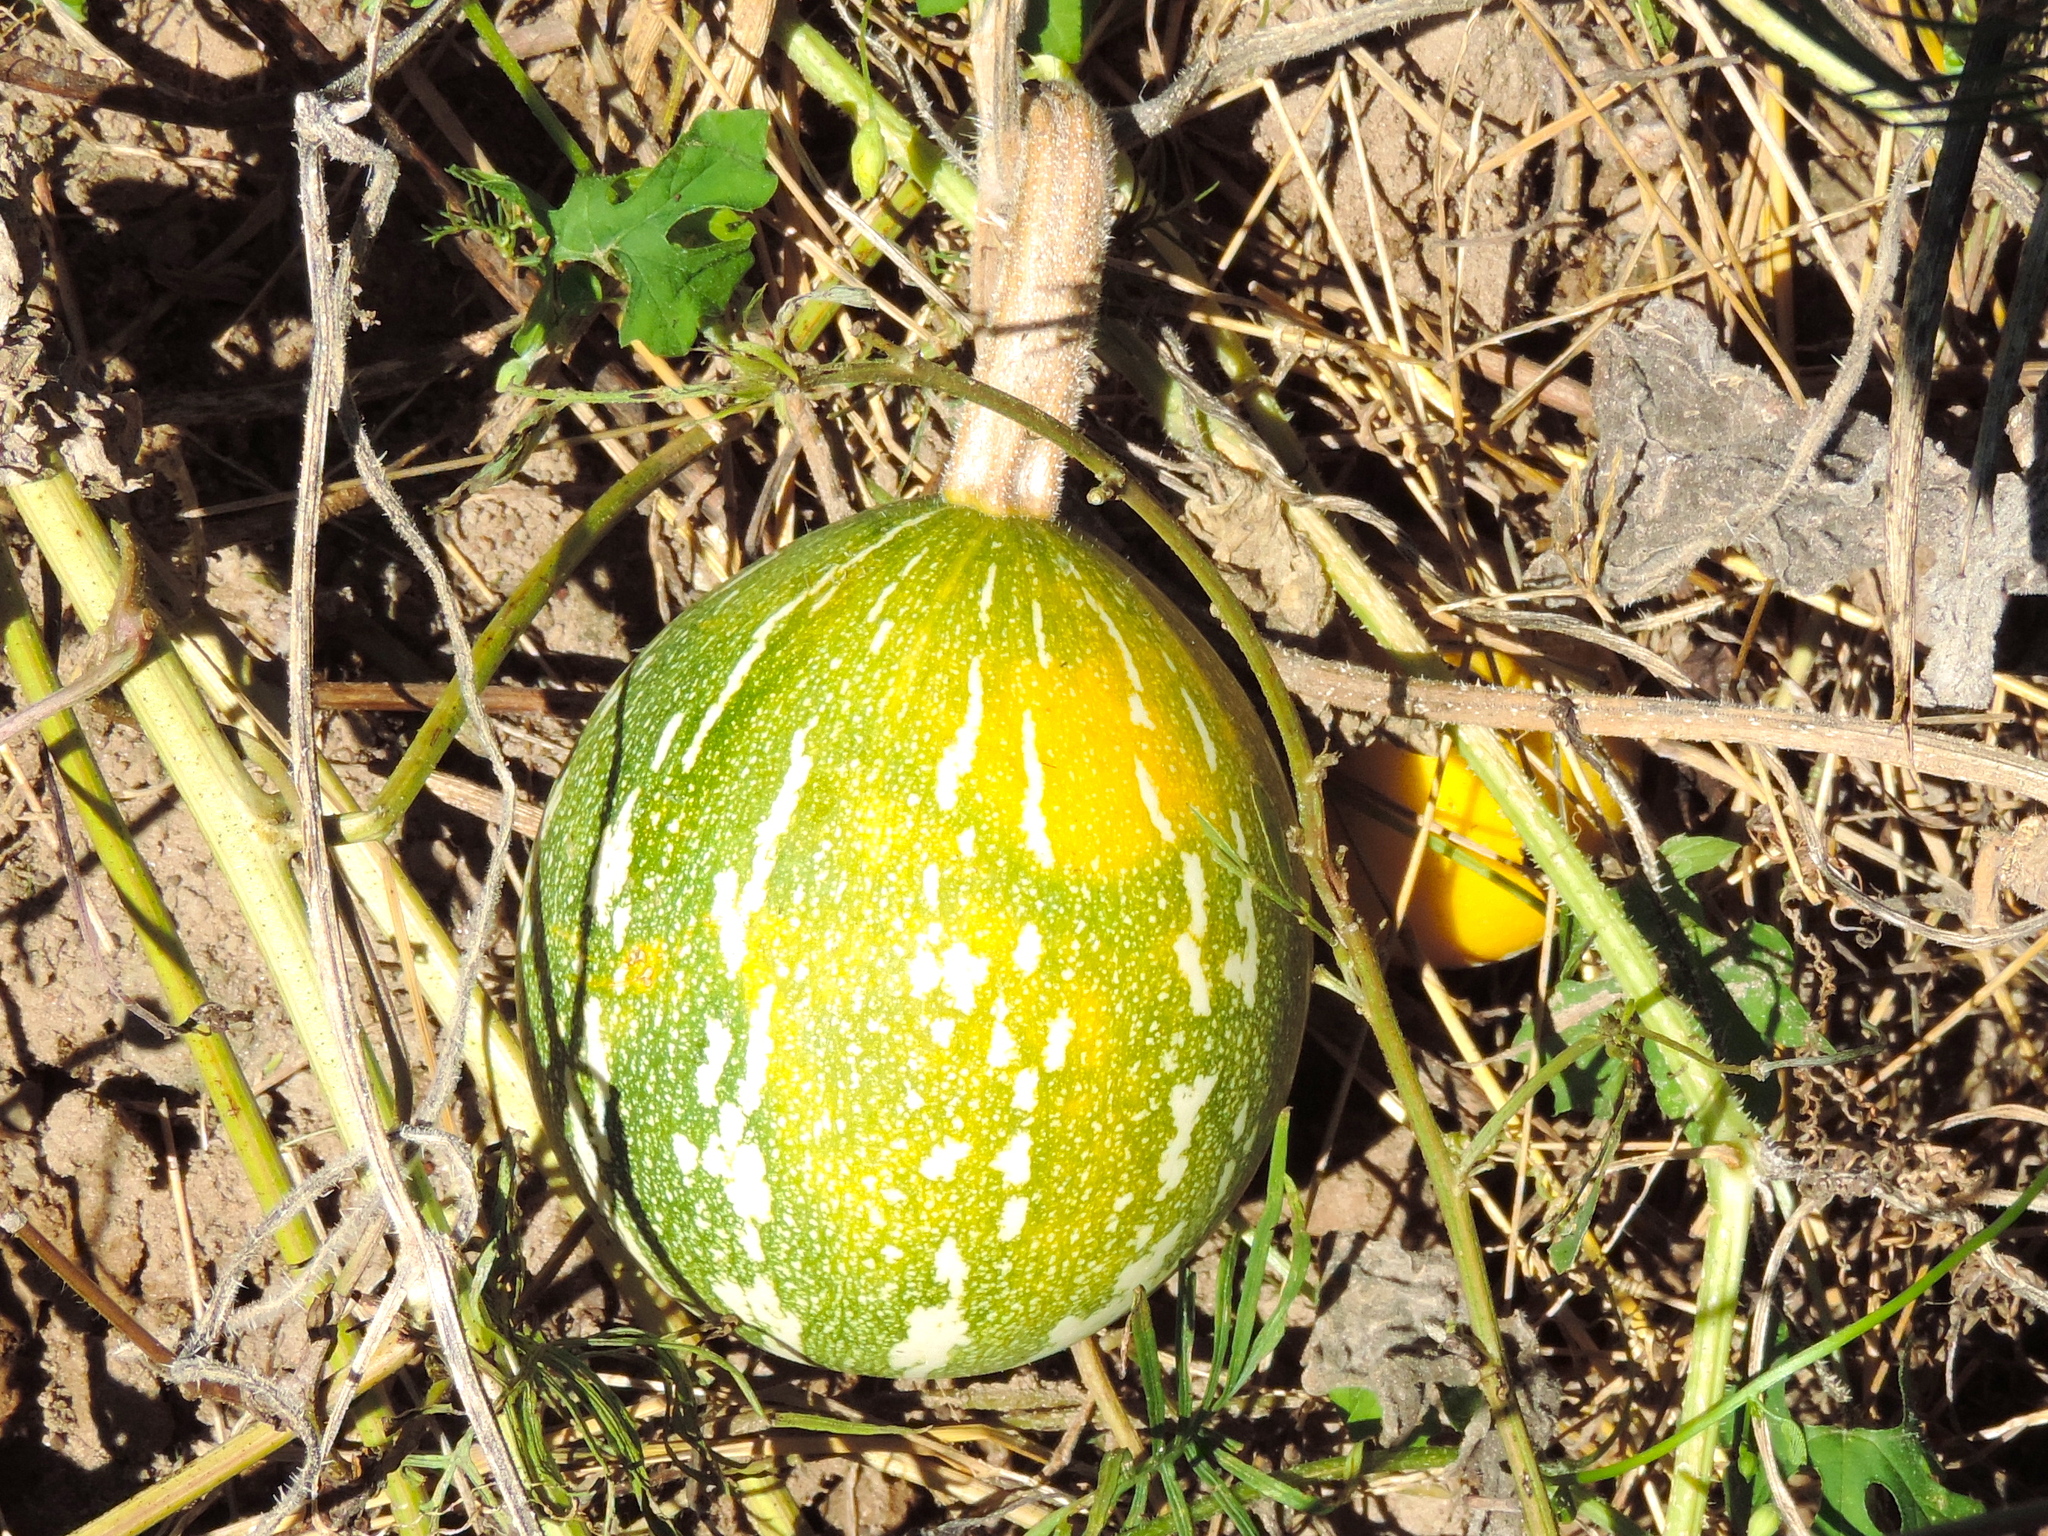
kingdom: Plantae
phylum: Tracheophyta
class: Magnoliopsida
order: Cucurbitales
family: Cucurbitaceae
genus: Cucurbita
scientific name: Cucurbita argyrosperma
